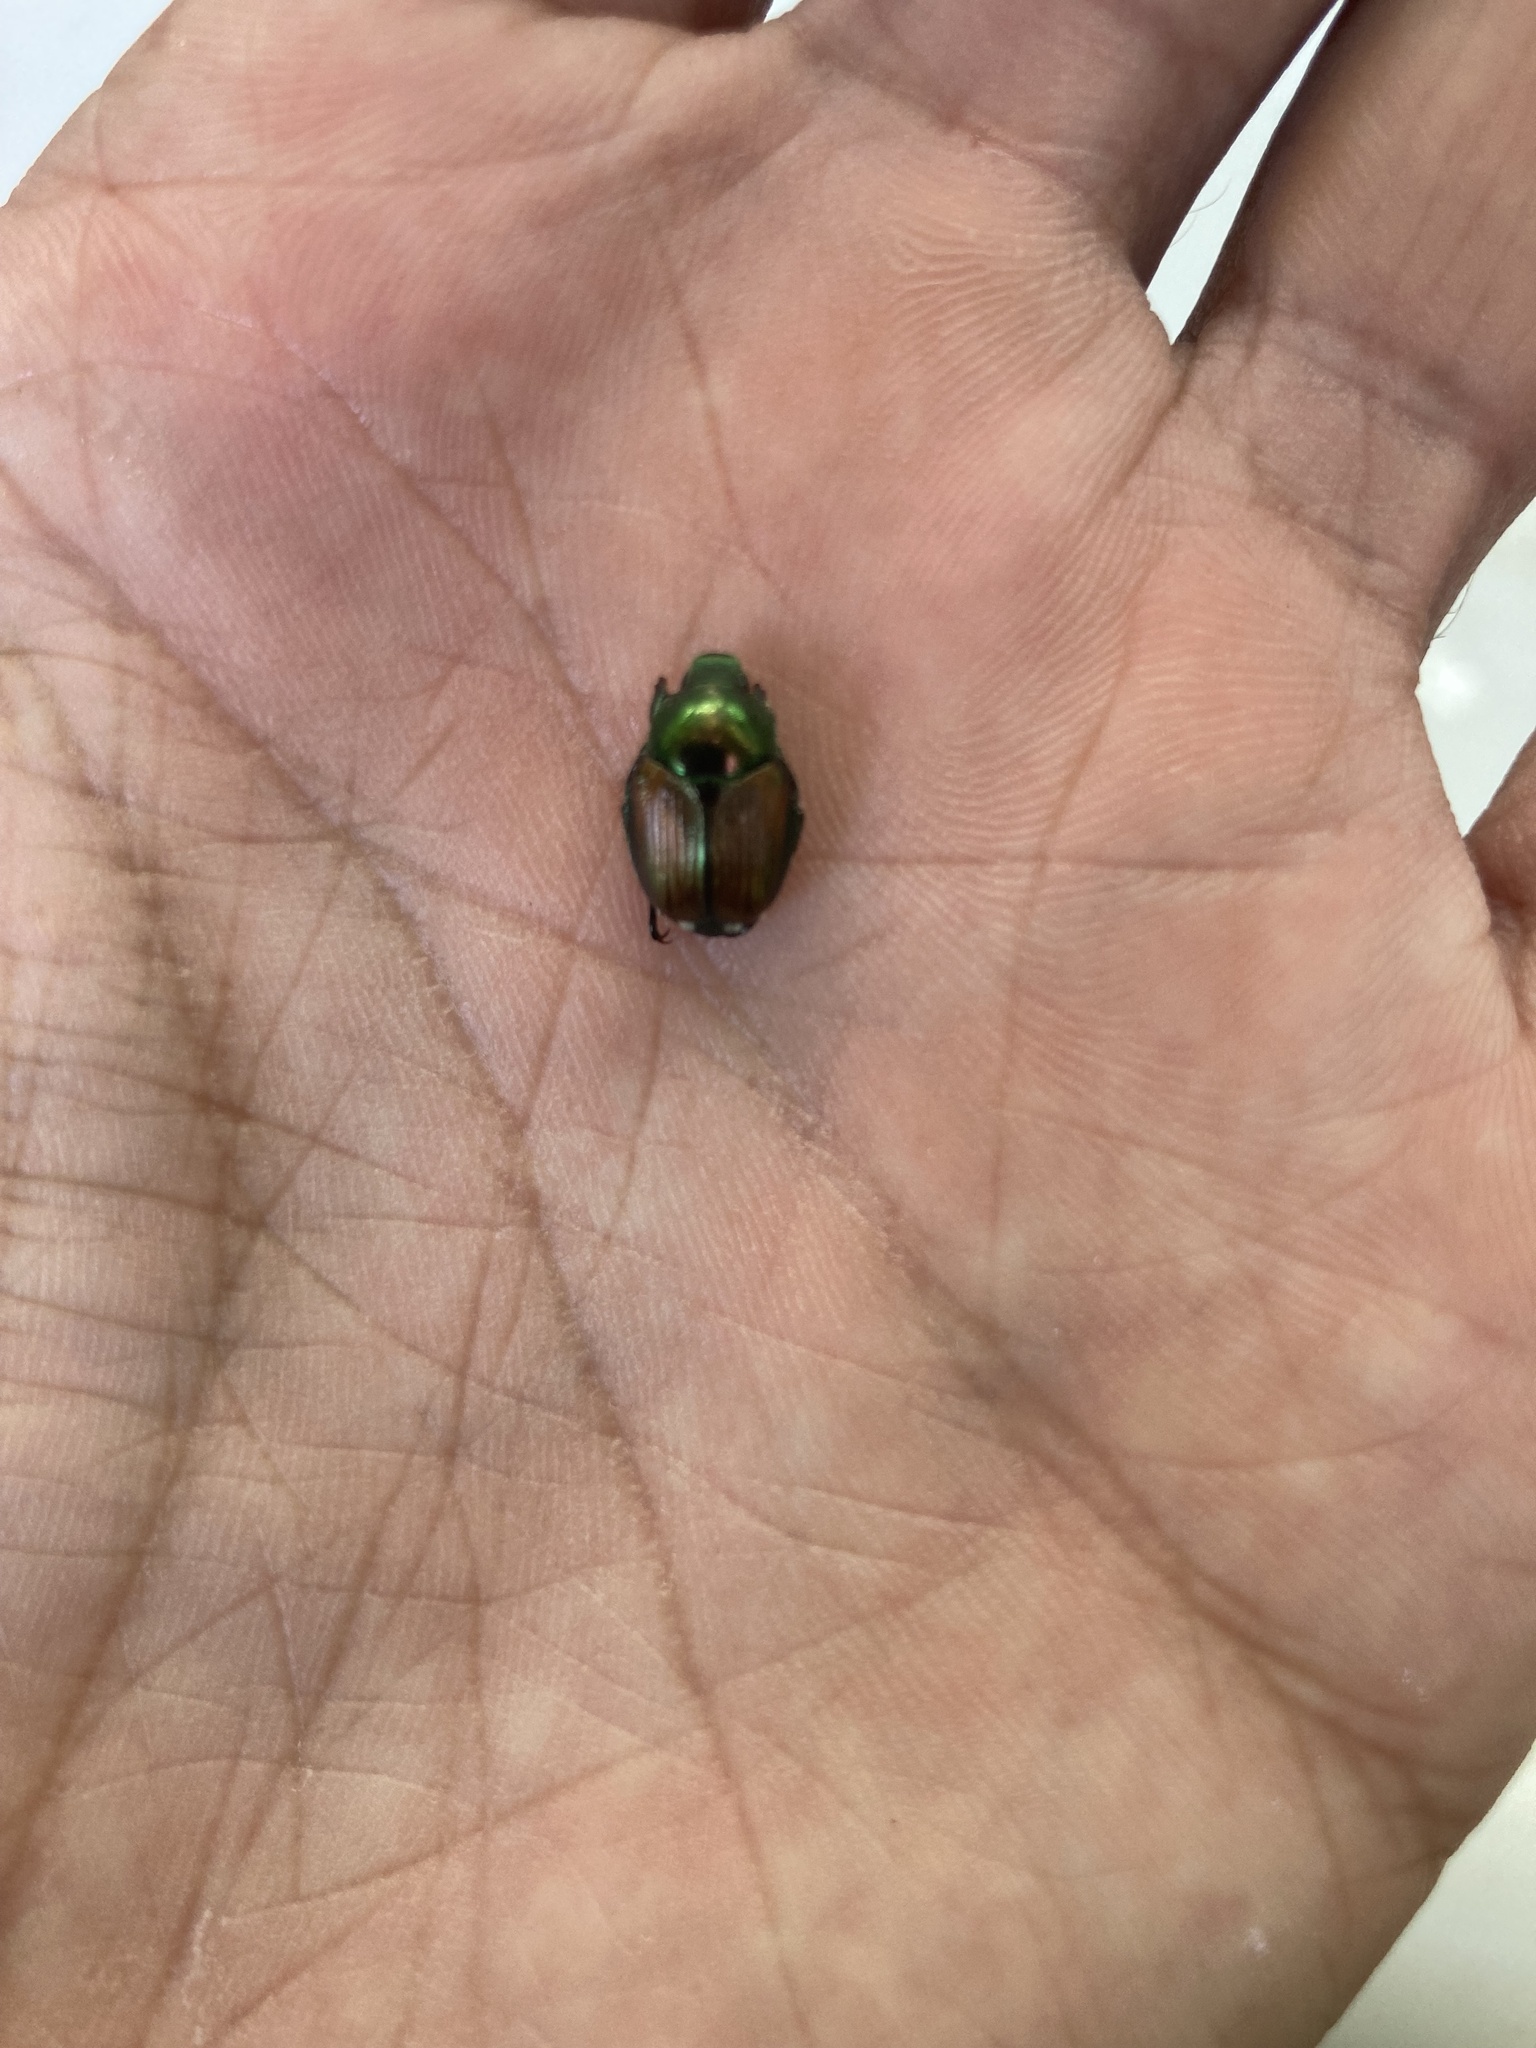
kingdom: Animalia
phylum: Arthropoda
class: Insecta
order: Coleoptera
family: Scarabaeidae
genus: Popillia
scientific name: Popillia japonica
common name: Japanese beetle
